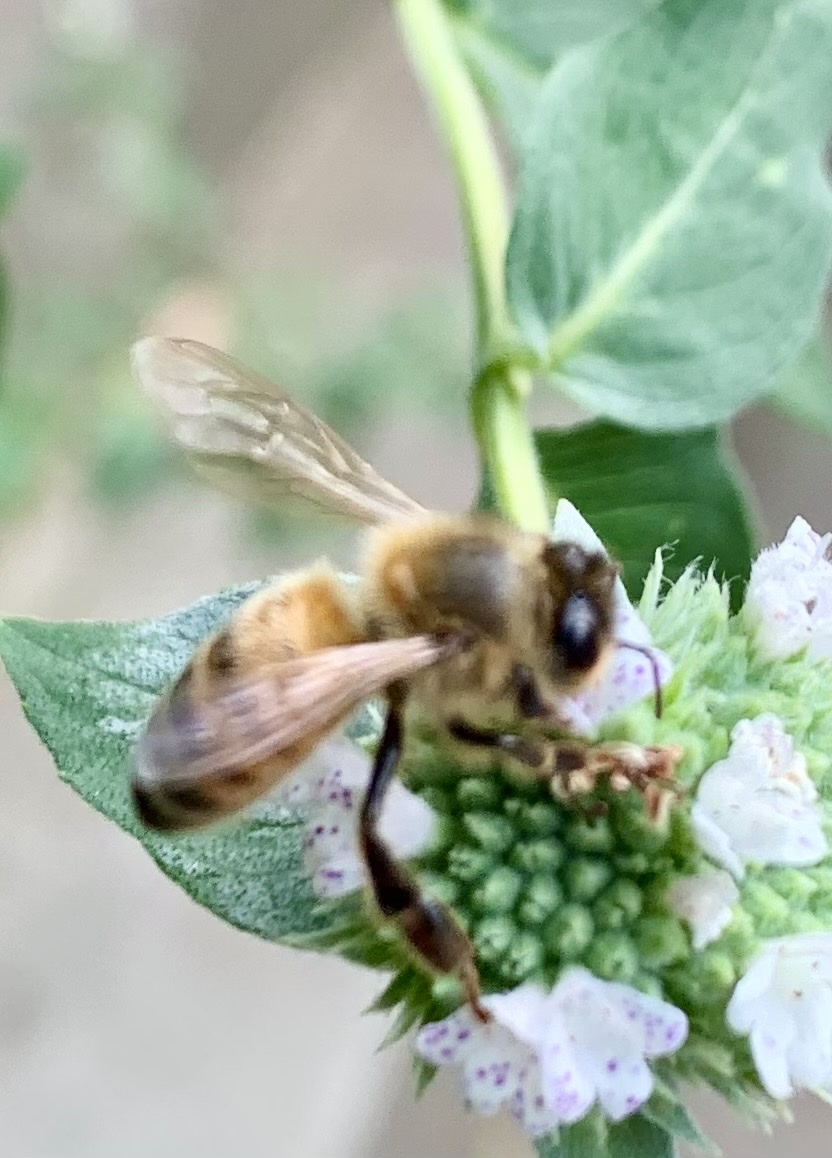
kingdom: Animalia
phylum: Arthropoda
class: Insecta
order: Hymenoptera
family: Apidae
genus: Apis
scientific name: Apis mellifera
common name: Honey bee
